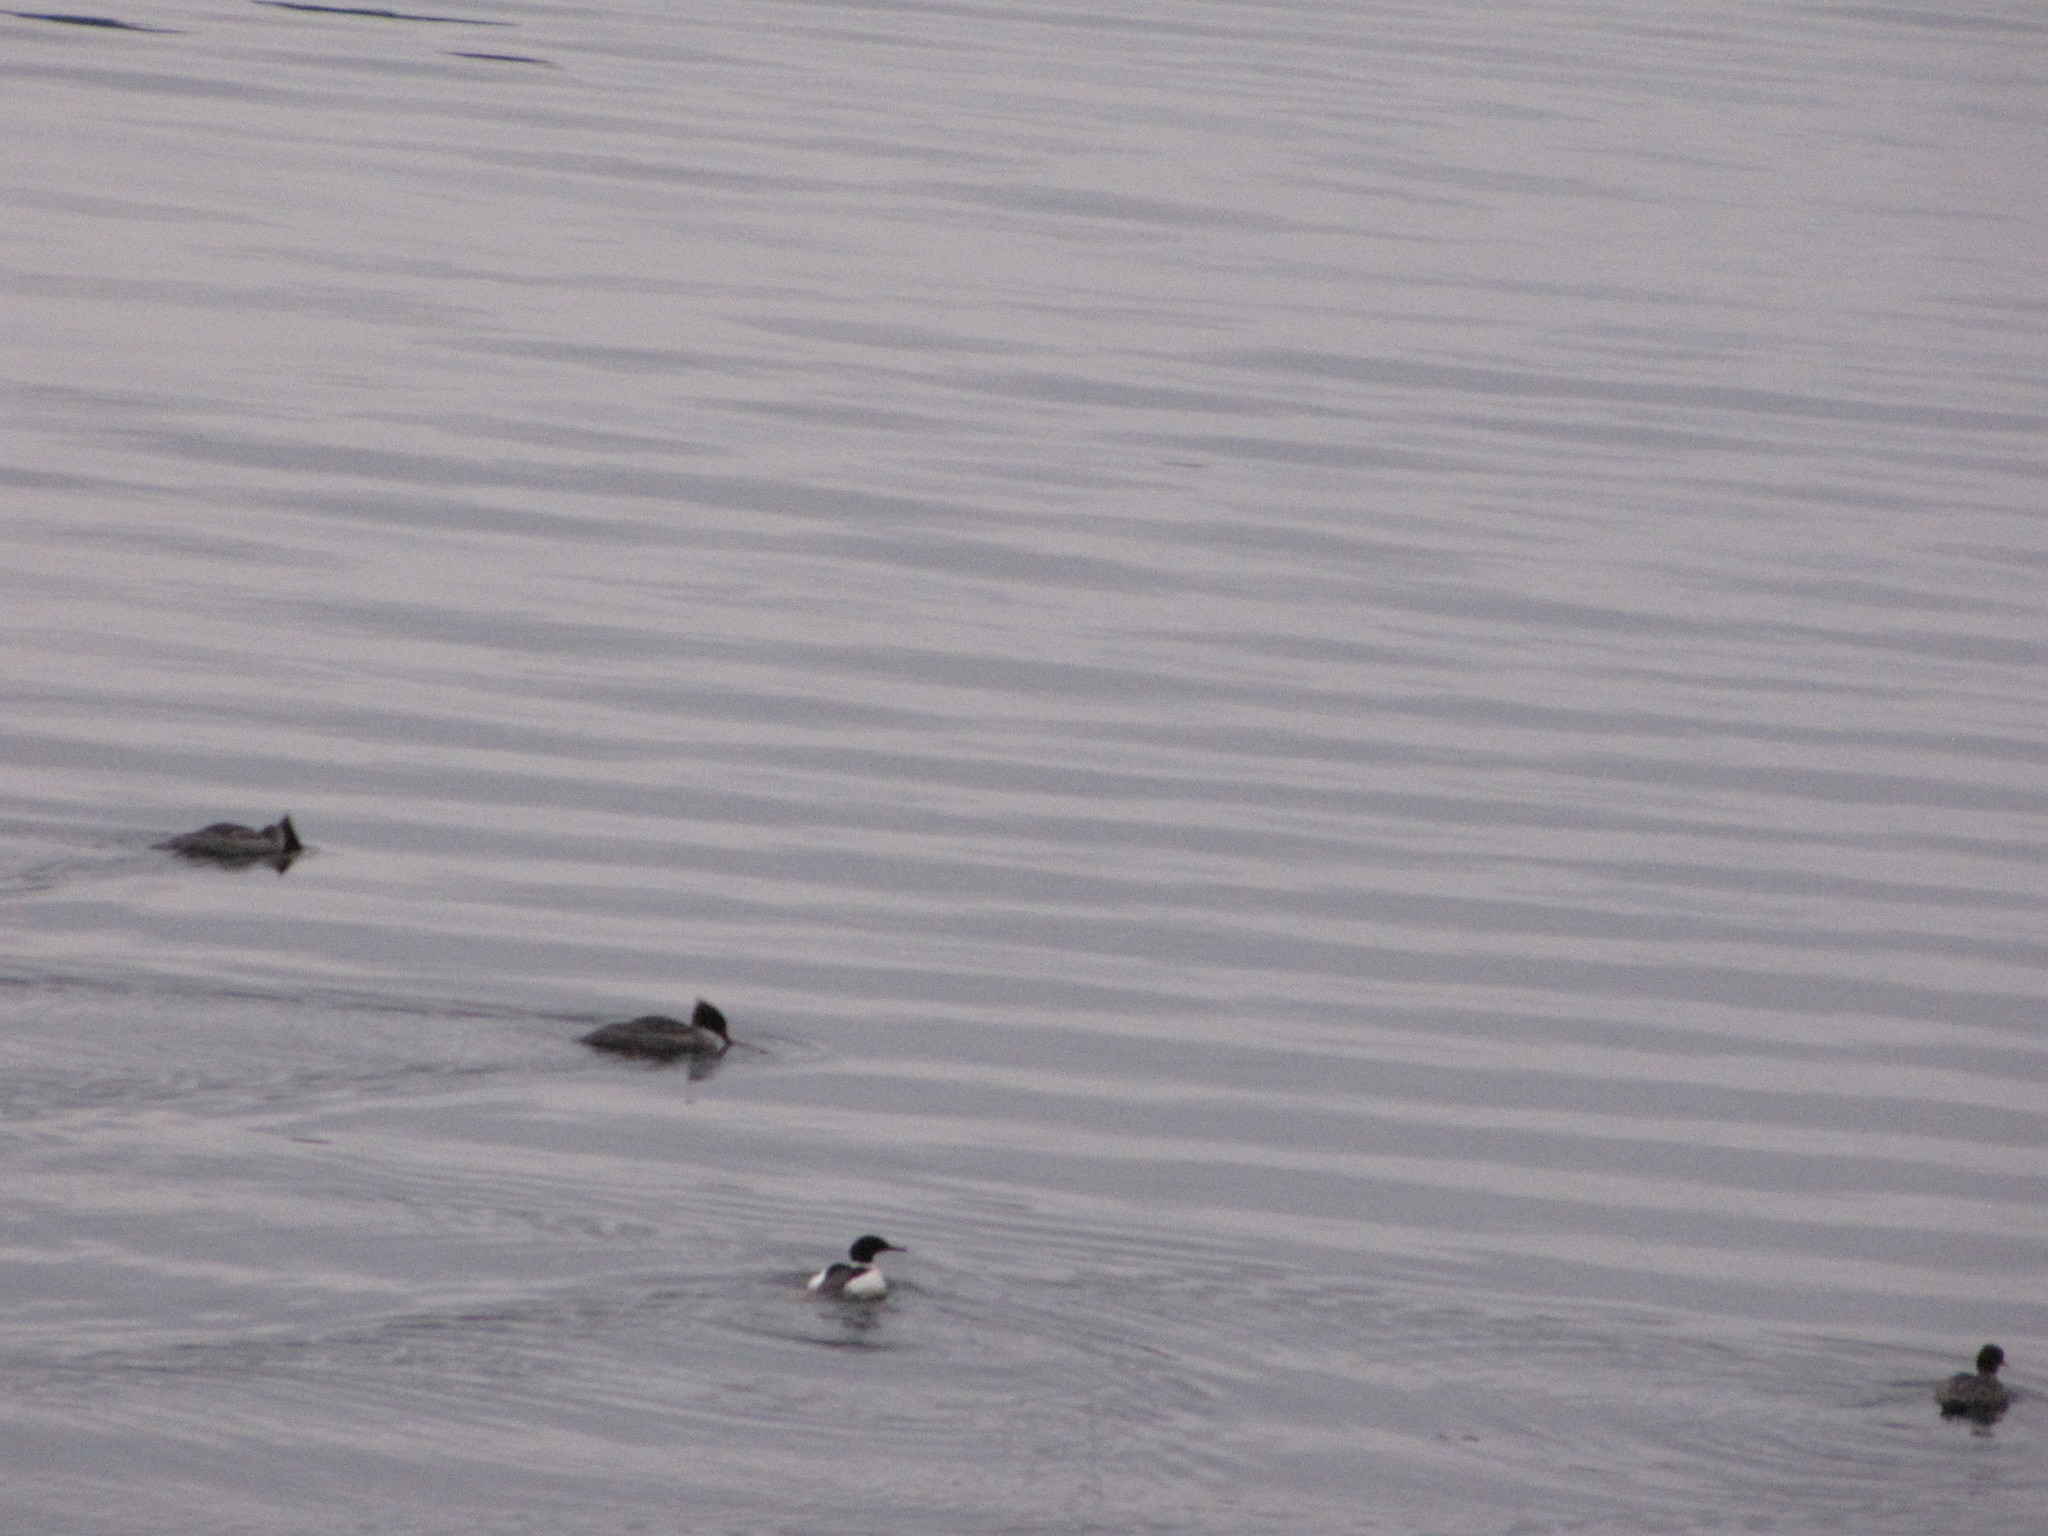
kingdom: Animalia
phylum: Chordata
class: Aves
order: Anseriformes
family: Anatidae
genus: Mergus
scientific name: Mergus merganser
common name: Common merganser
